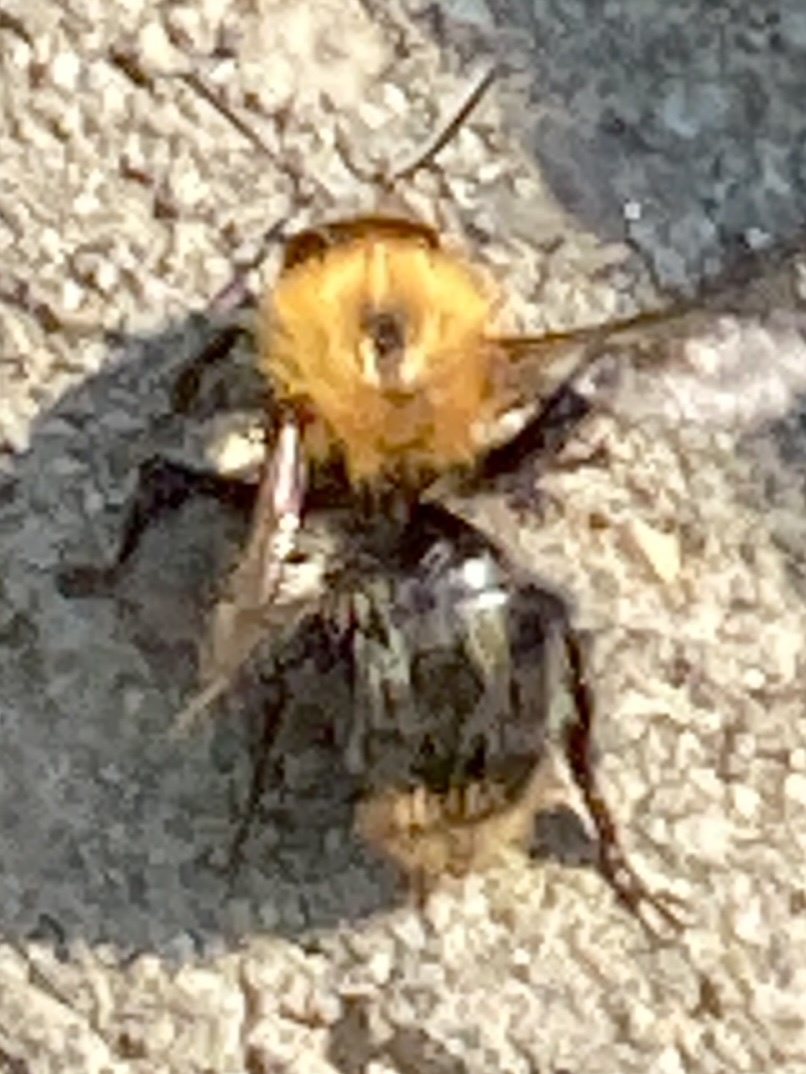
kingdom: Animalia
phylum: Arthropoda
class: Insecta
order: Hymenoptera
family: Apidae
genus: Bombus
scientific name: Bombus pascuorum
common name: Common carder bee
